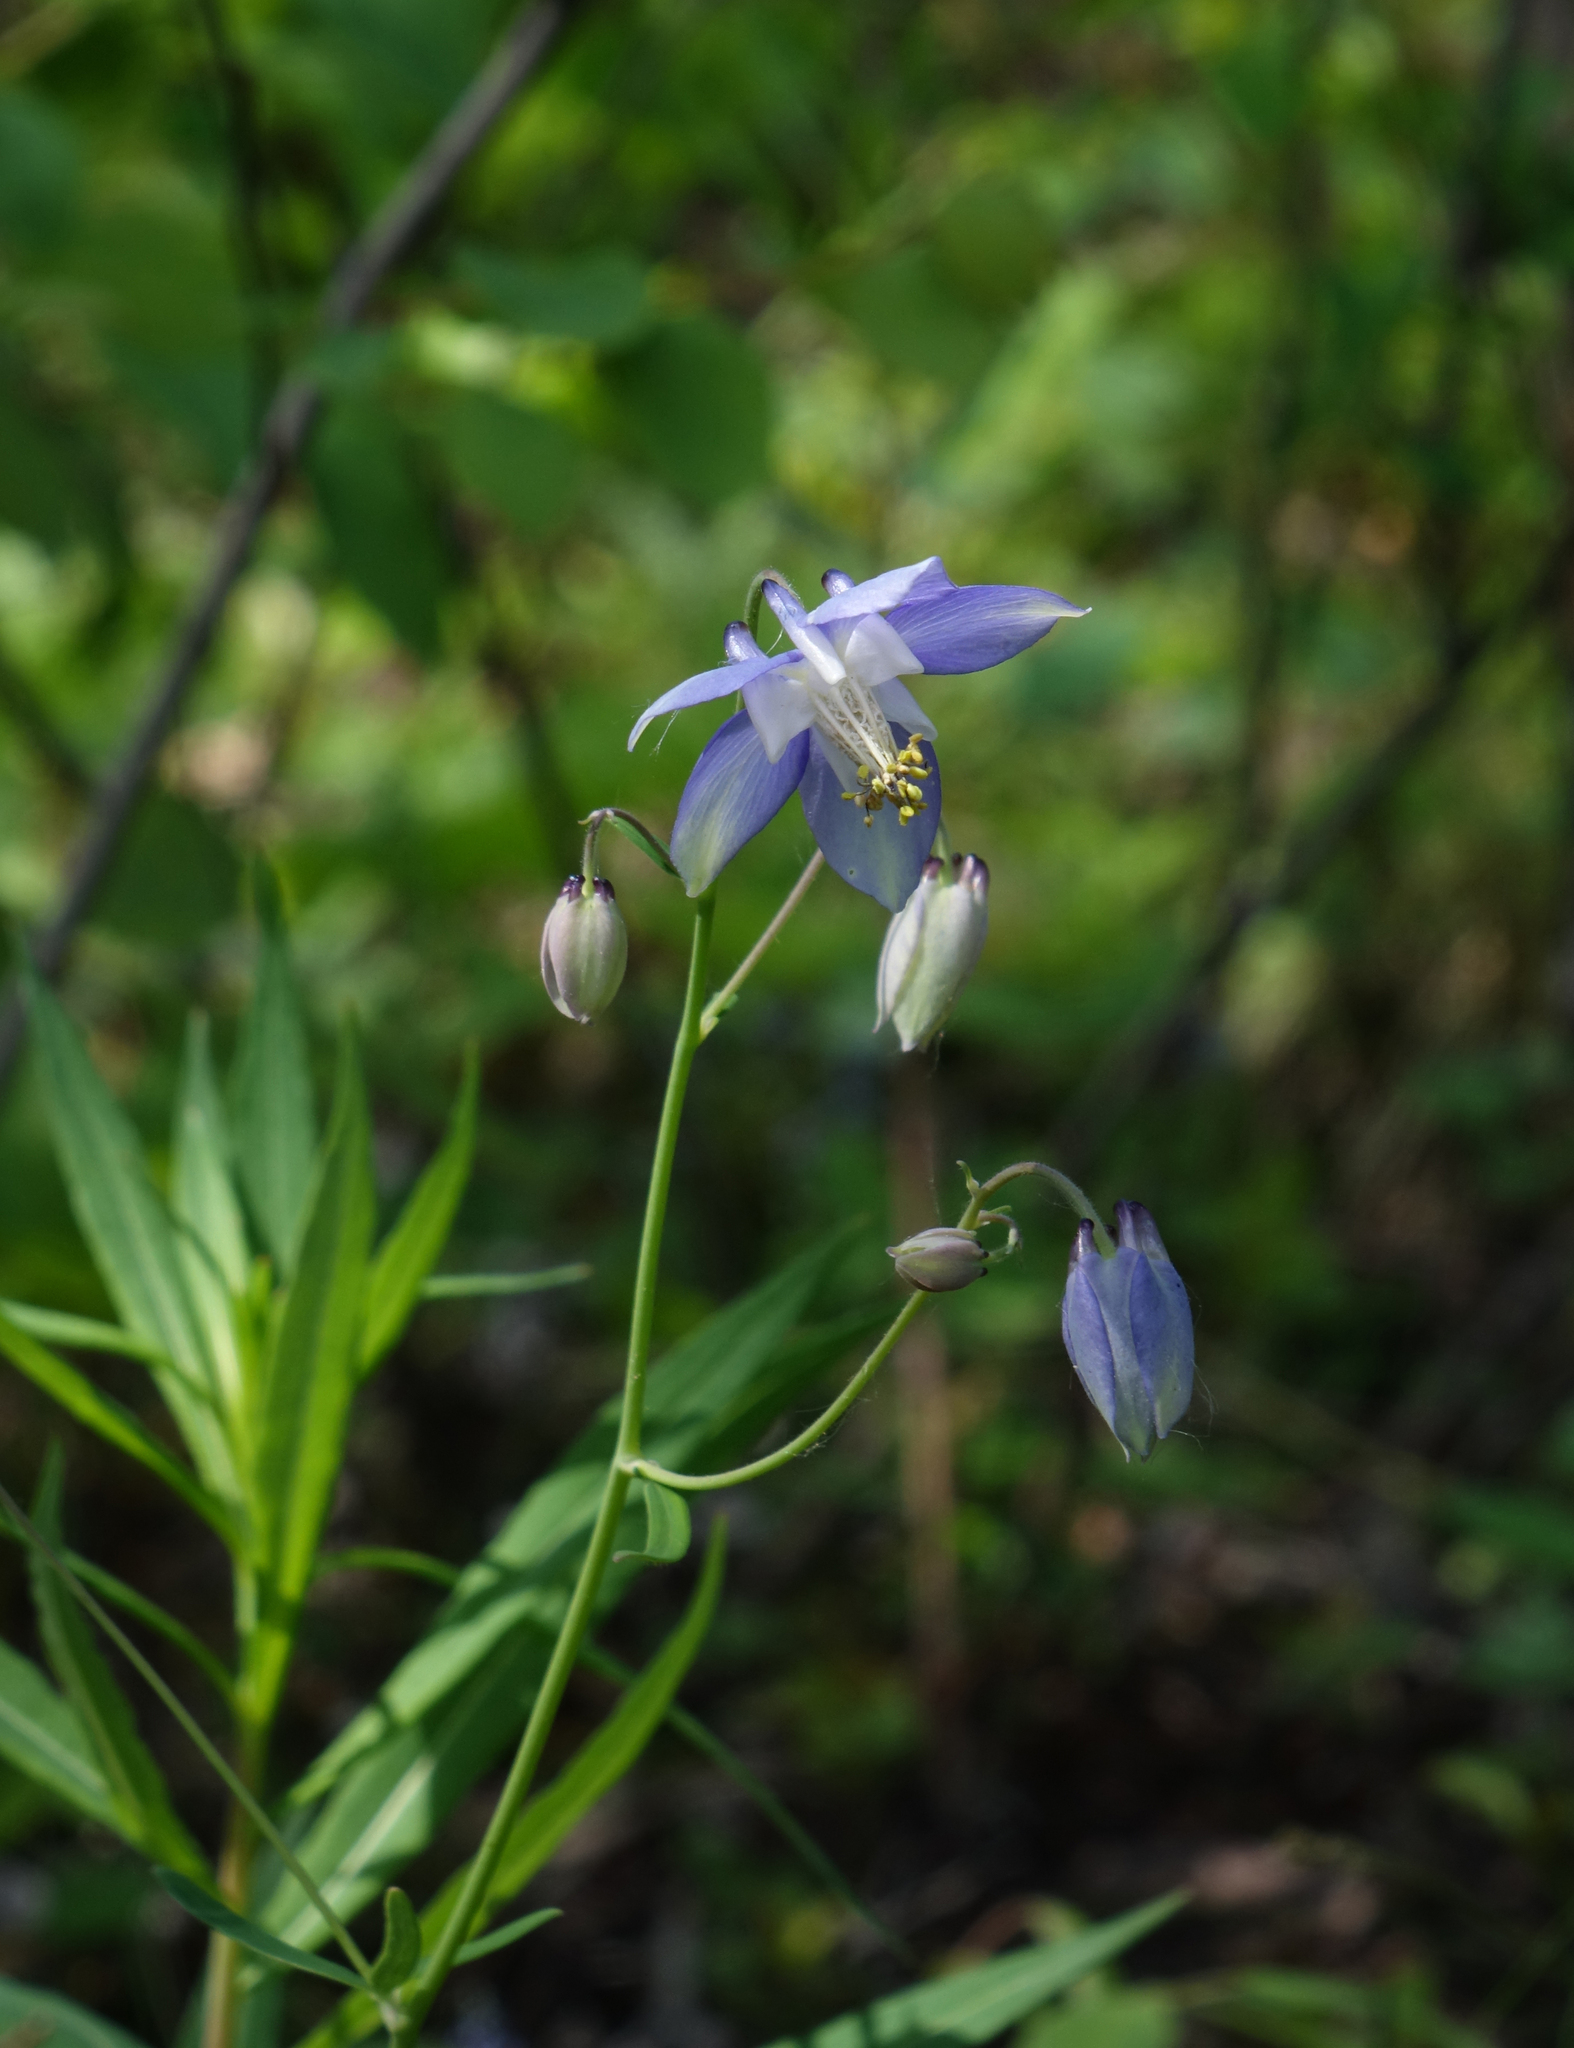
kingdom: Plantae
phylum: Tracheophyta
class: Magnoliopsida
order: Ranunculales
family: Ranunculaceae
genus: Aquilegia
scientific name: Aquilegia parviflora
